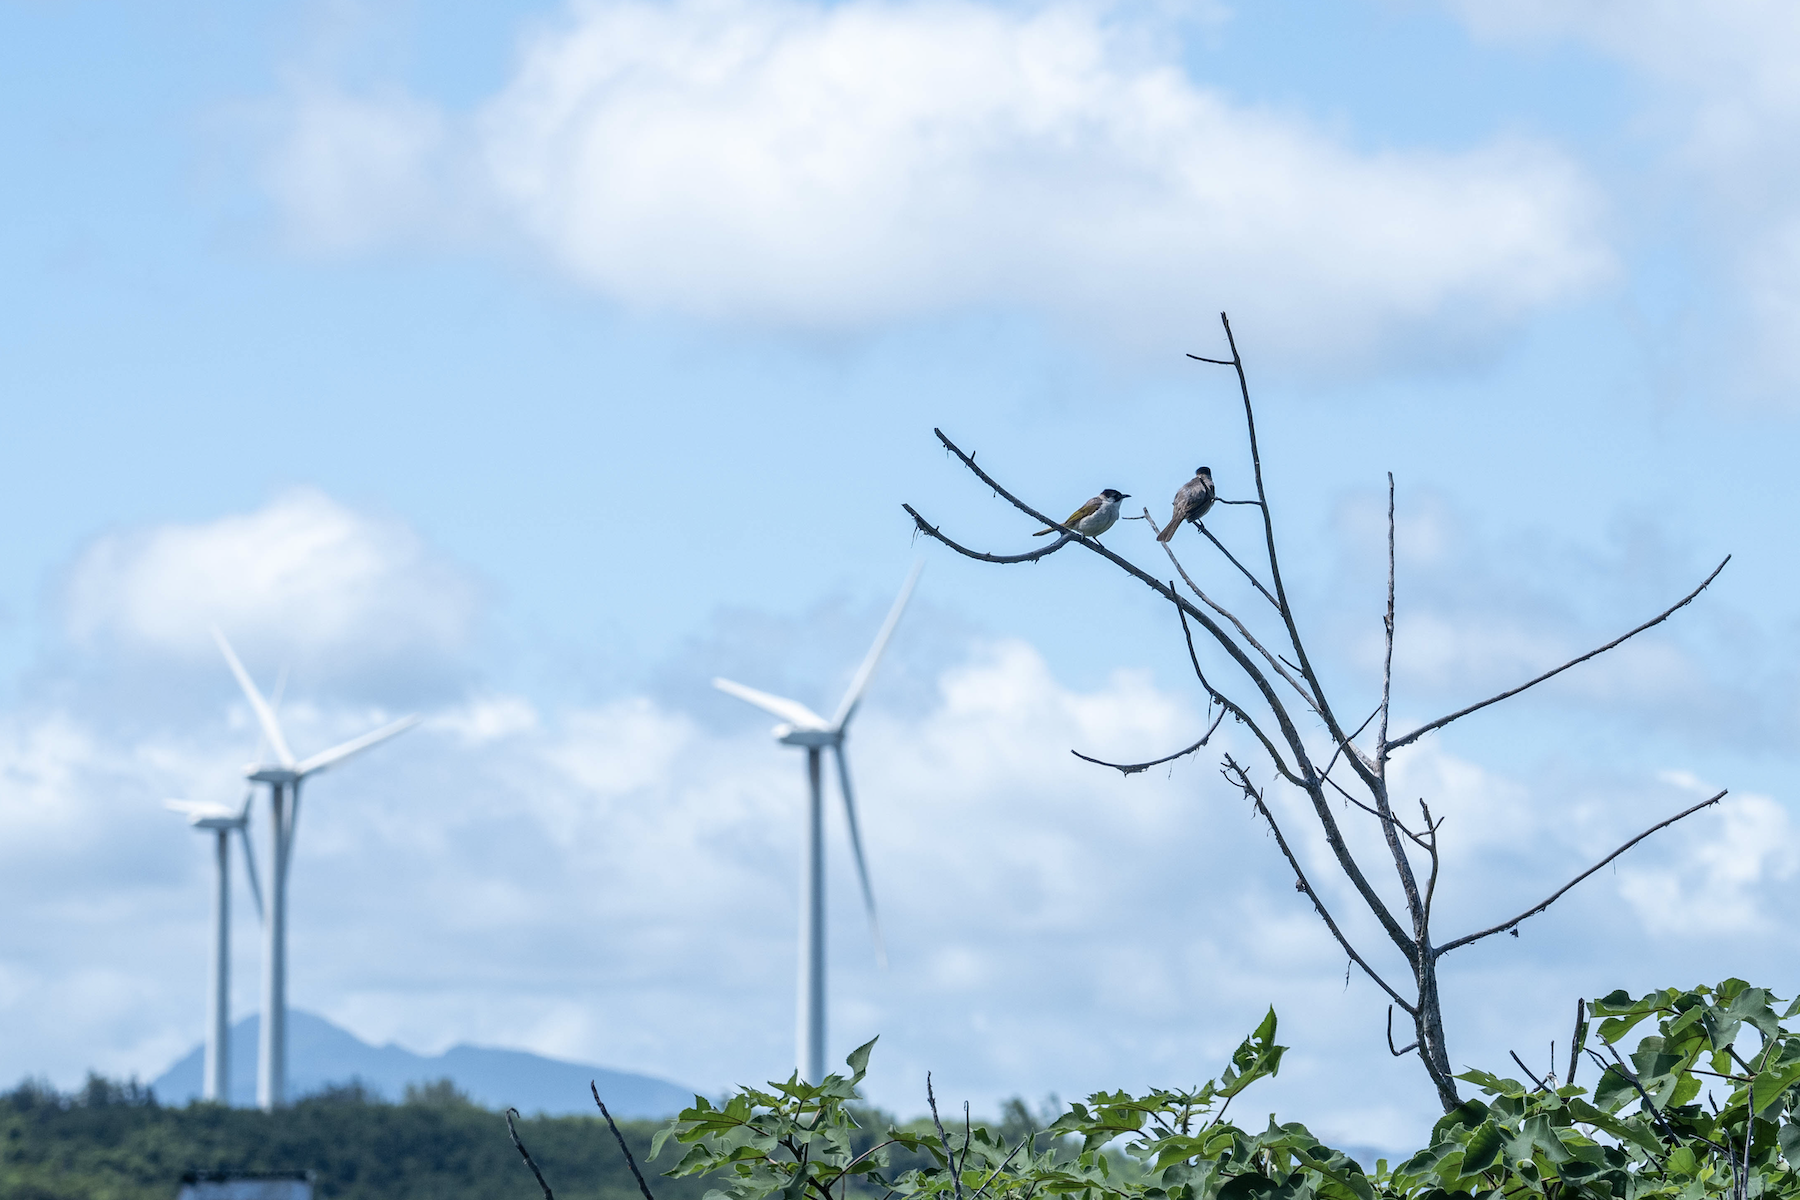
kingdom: Animalia
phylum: Chordata
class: Aves
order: Passeriformes
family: Pycnonotidae
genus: Pycnonotus
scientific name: Pycnonotus taivanus
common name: Styan's bulbul
